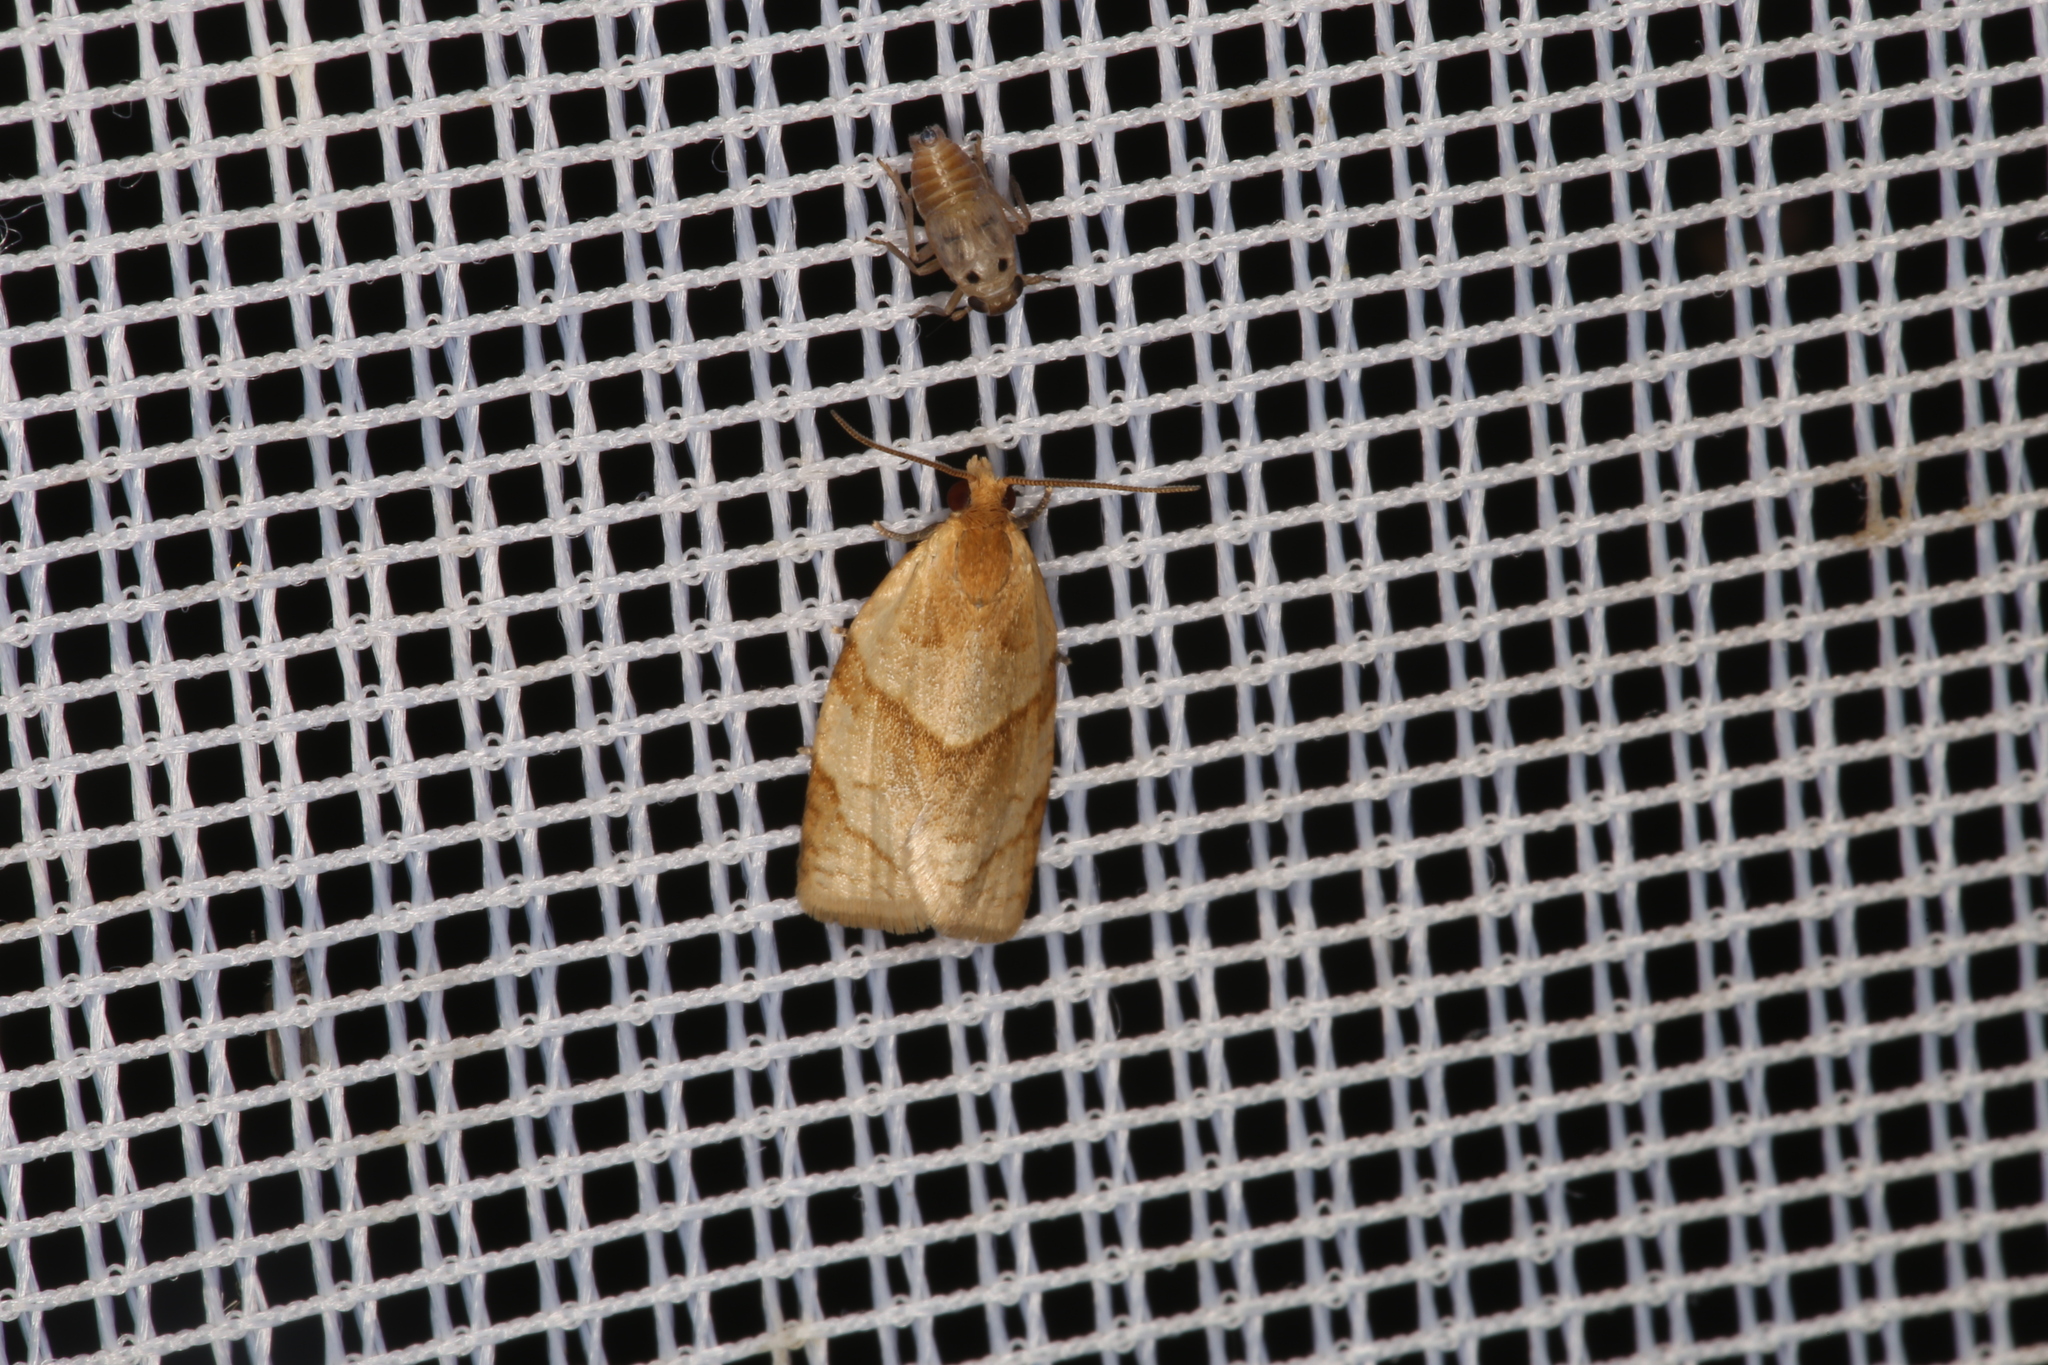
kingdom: Animalia
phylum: Arthropoda
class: Insecta
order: Lepidoptera
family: Tortricidae
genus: Clepsis
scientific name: Clepsis rurinana
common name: Pale twist
